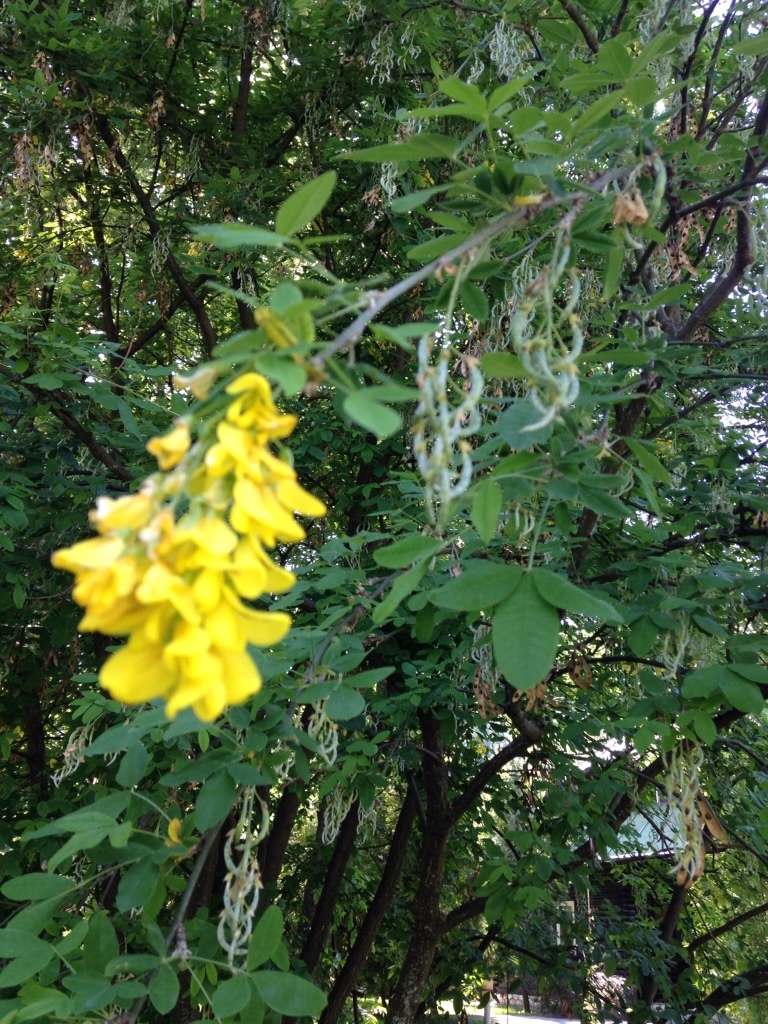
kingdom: Plantae
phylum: Tracheophyta
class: Magnoliopsida
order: Fabales
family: Fabaceae
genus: Laburnum
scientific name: Laburnum anagyroides
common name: Laburnum
